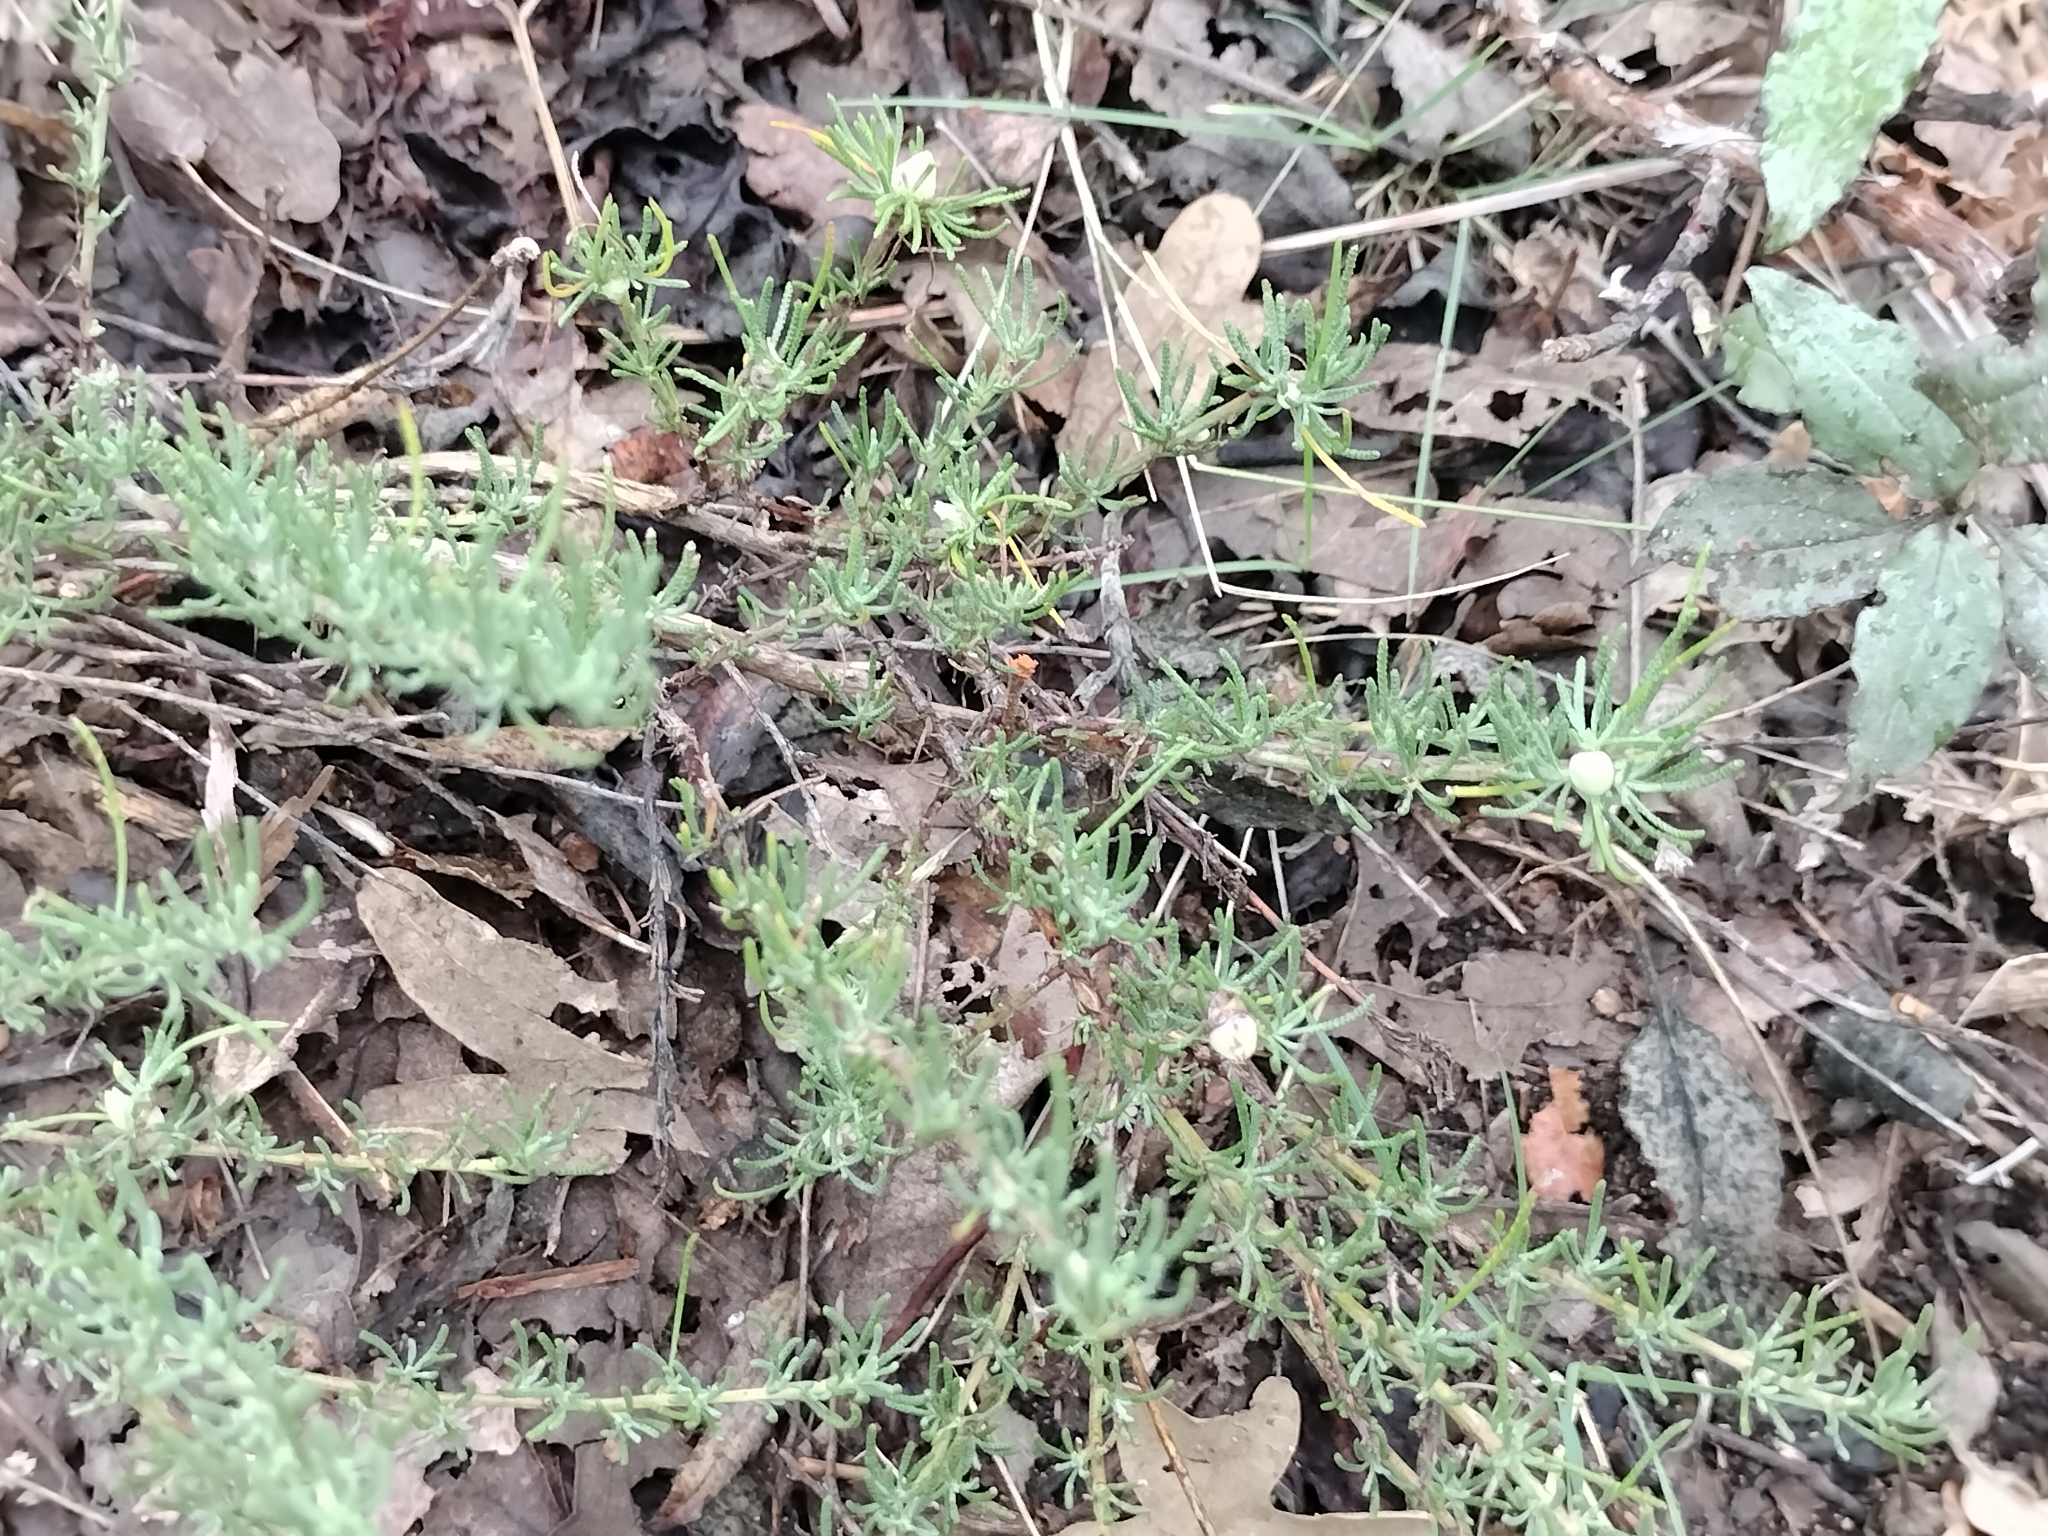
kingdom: Plantae
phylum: Tracheophyta
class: Magnoliopsida
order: Asterales
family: Asteraceae
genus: Santolina
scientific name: Santolina rosmarinifolia
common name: Holy-flax
